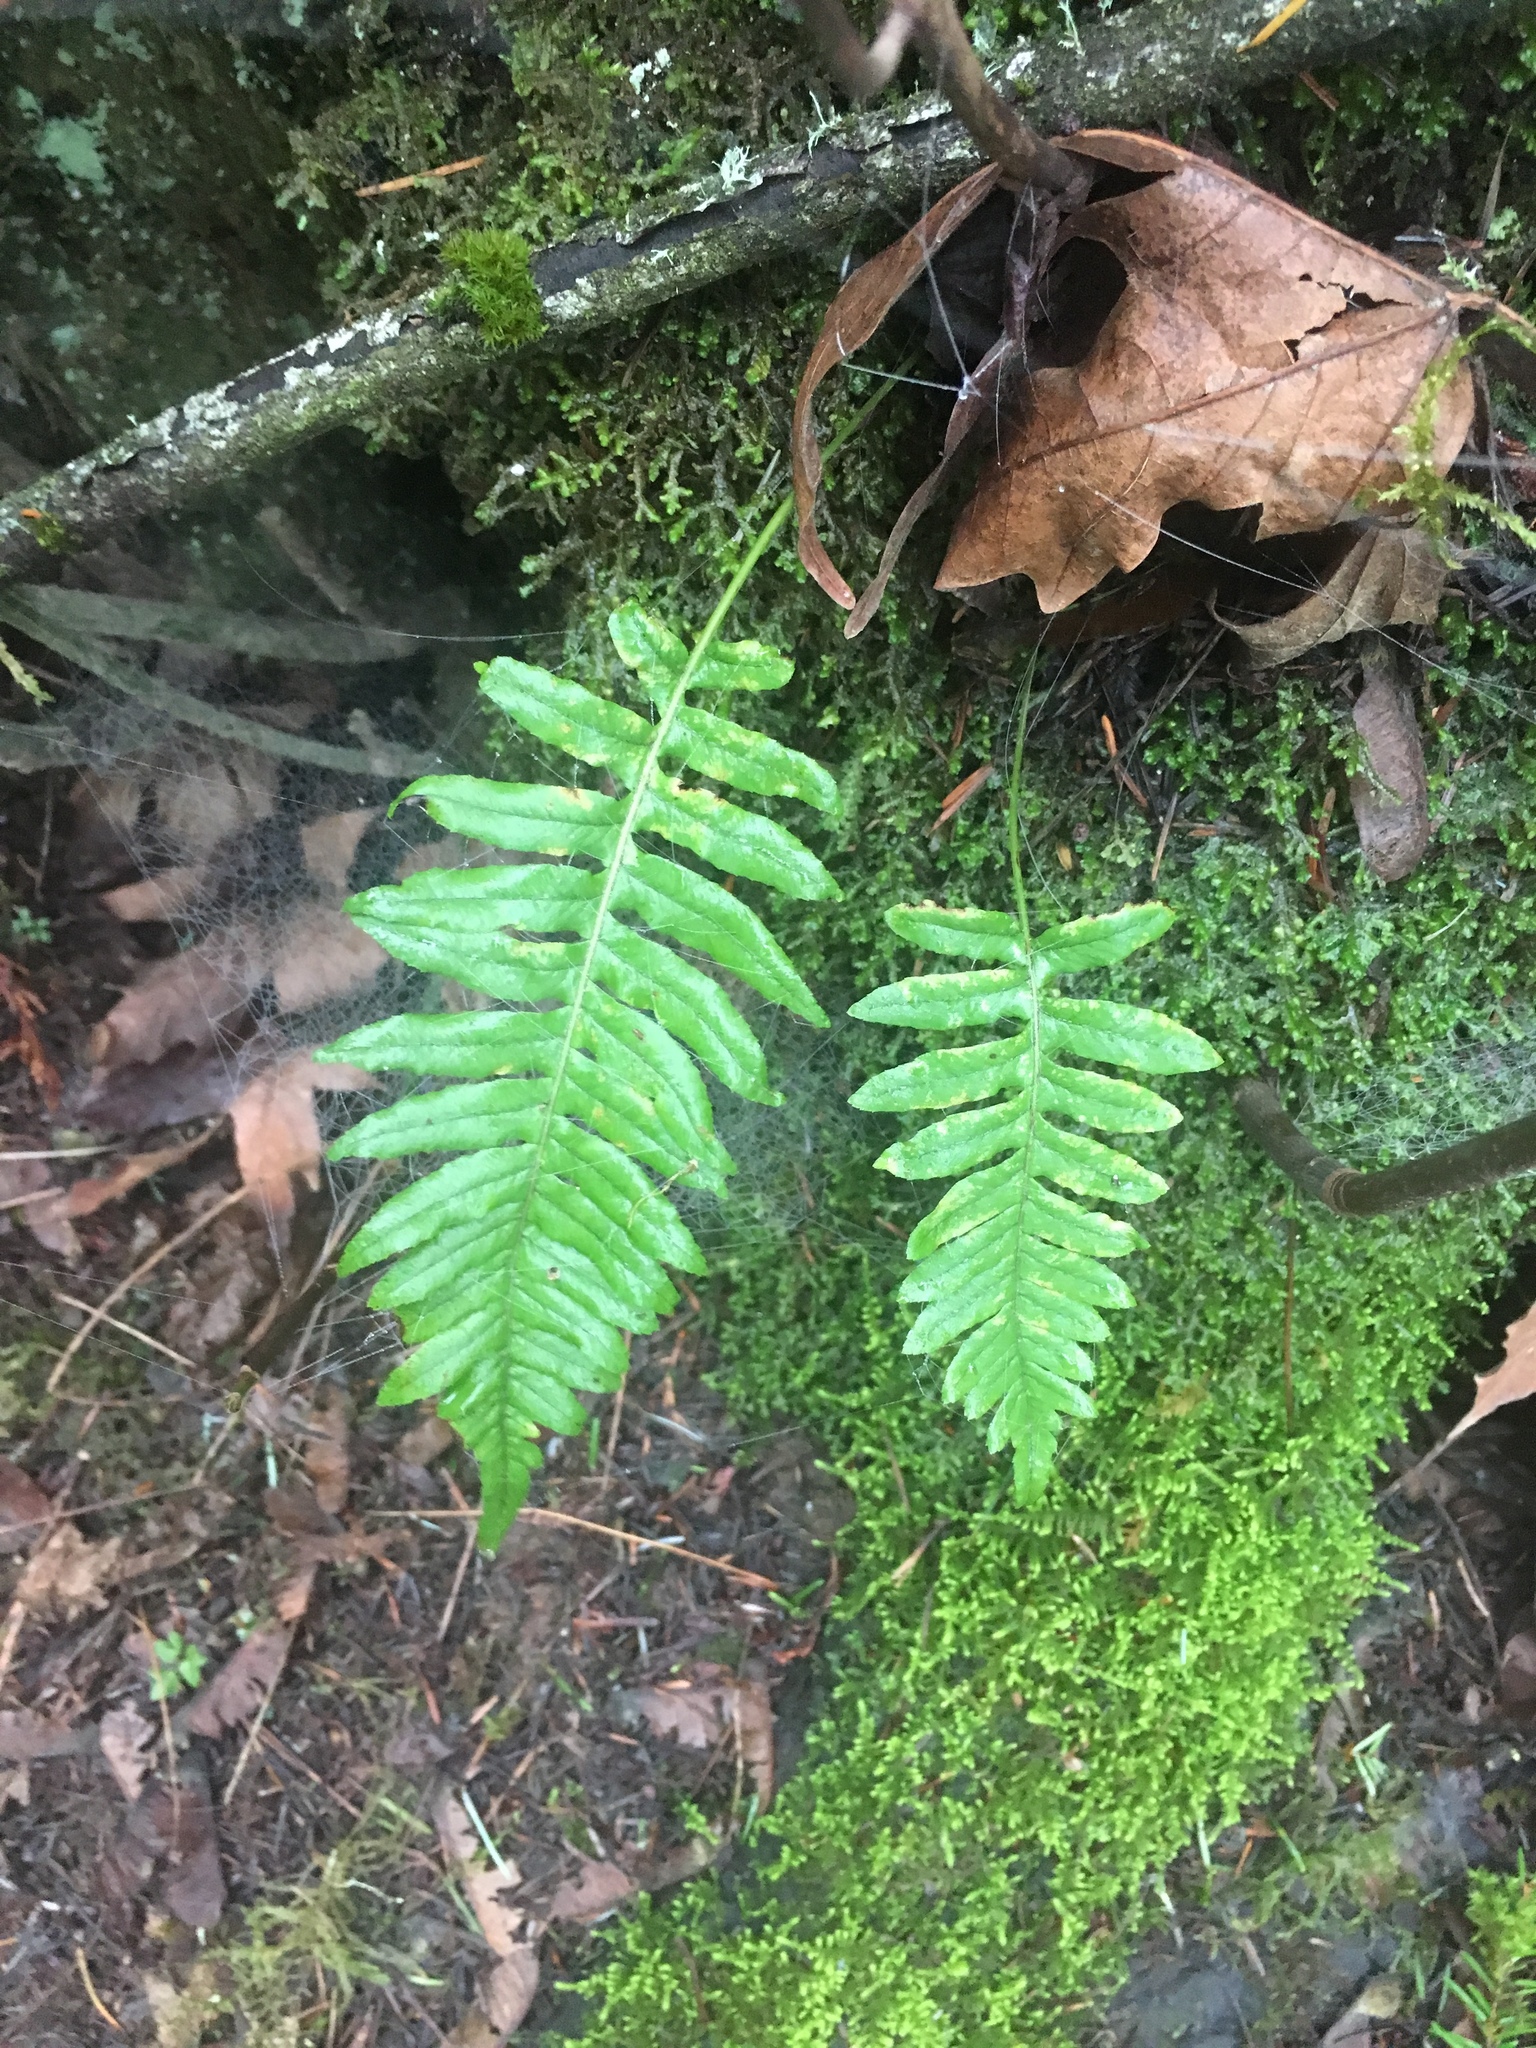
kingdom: Plantae
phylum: Tracheophyta
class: Polypodiopsida
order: Polypodiales
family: Polypodiaceae
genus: Polypodium
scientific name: Polypodium glycyrrhiza
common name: Licorice fern
